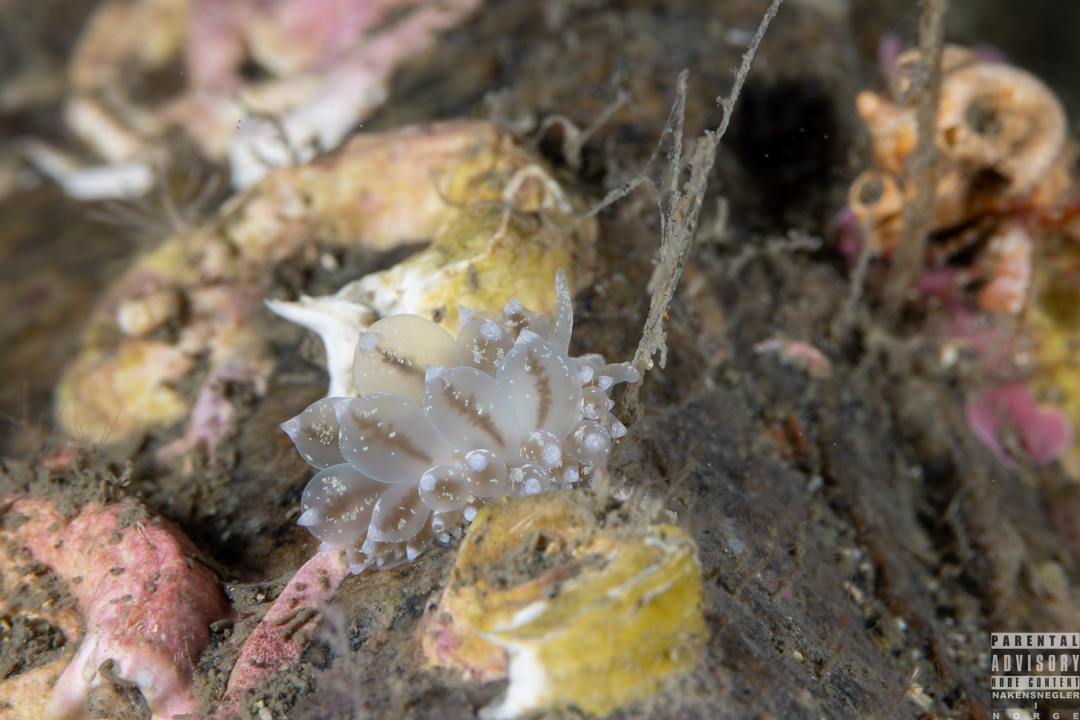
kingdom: Animalia
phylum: Mollusca
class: Gastropoda
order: Nudibranchia
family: Eubranchidae
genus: Amphorina
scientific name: Amphorina pallida
